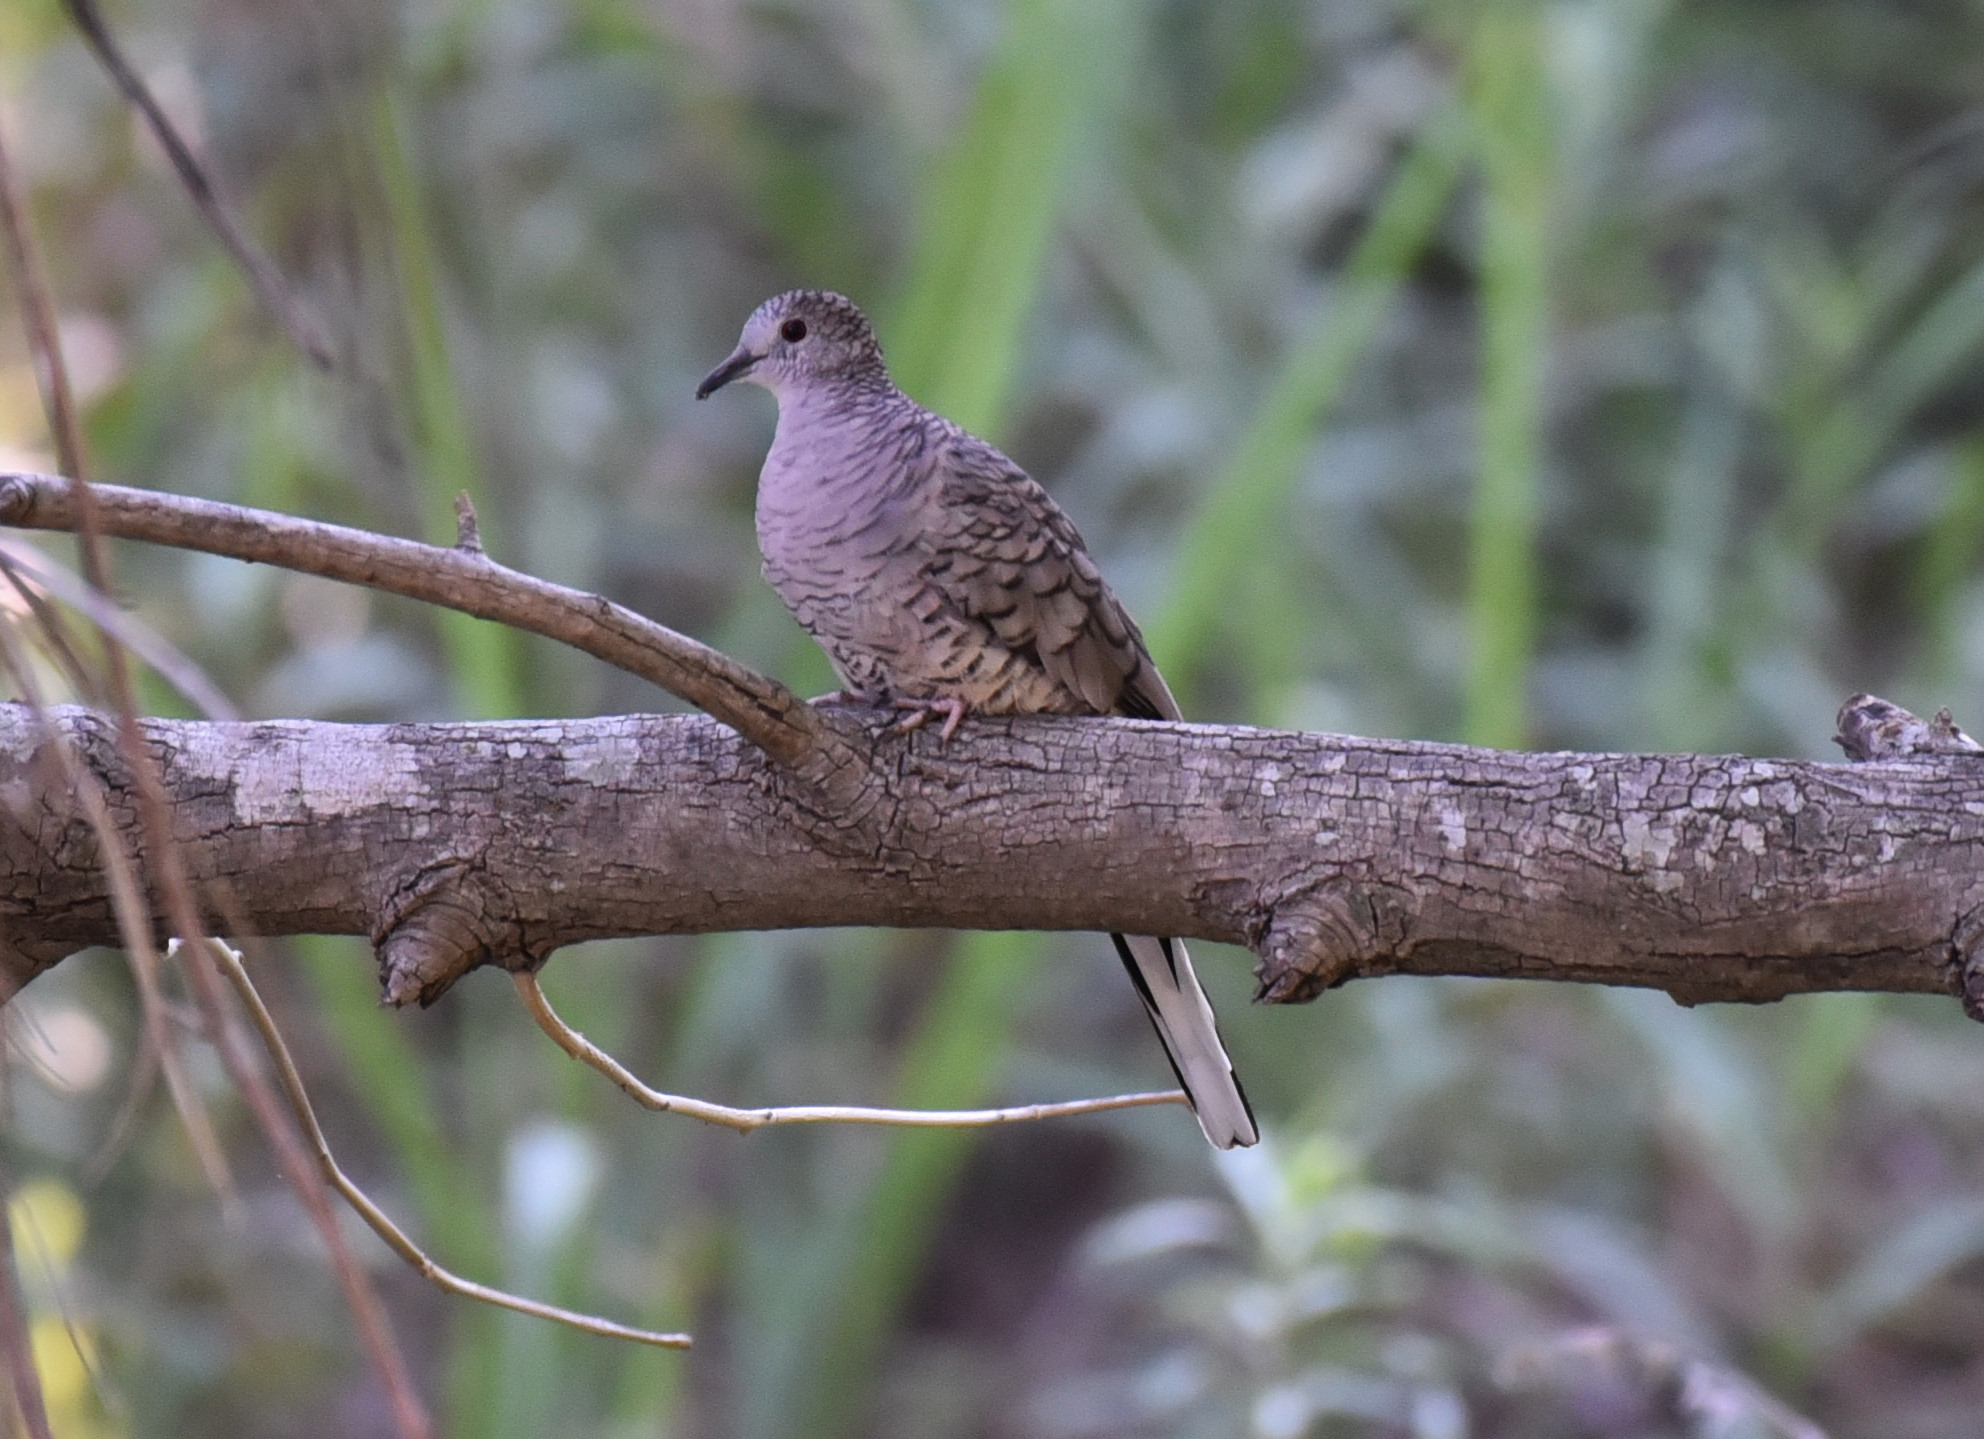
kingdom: Animalia
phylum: Chordata
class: Aves
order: Columbiformes
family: Columbidae
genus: Columbina
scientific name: Columbina inca
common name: Inca dove
